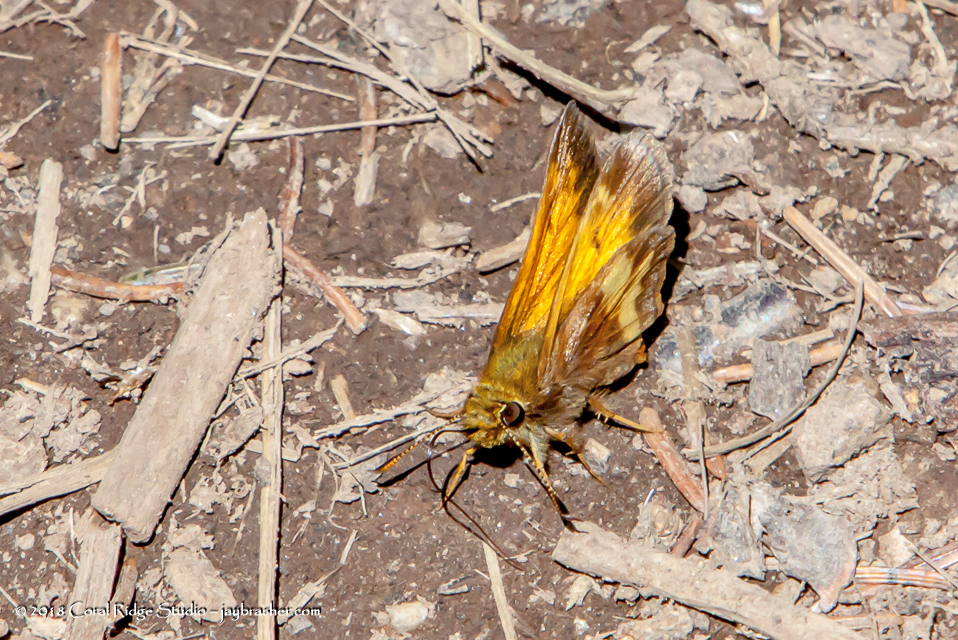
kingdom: Animalia
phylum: Arthropoda
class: Insecta
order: Lepidoptera
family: Hesperiidae
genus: Lon
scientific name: Lon hobomok
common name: Hobomok skipper
